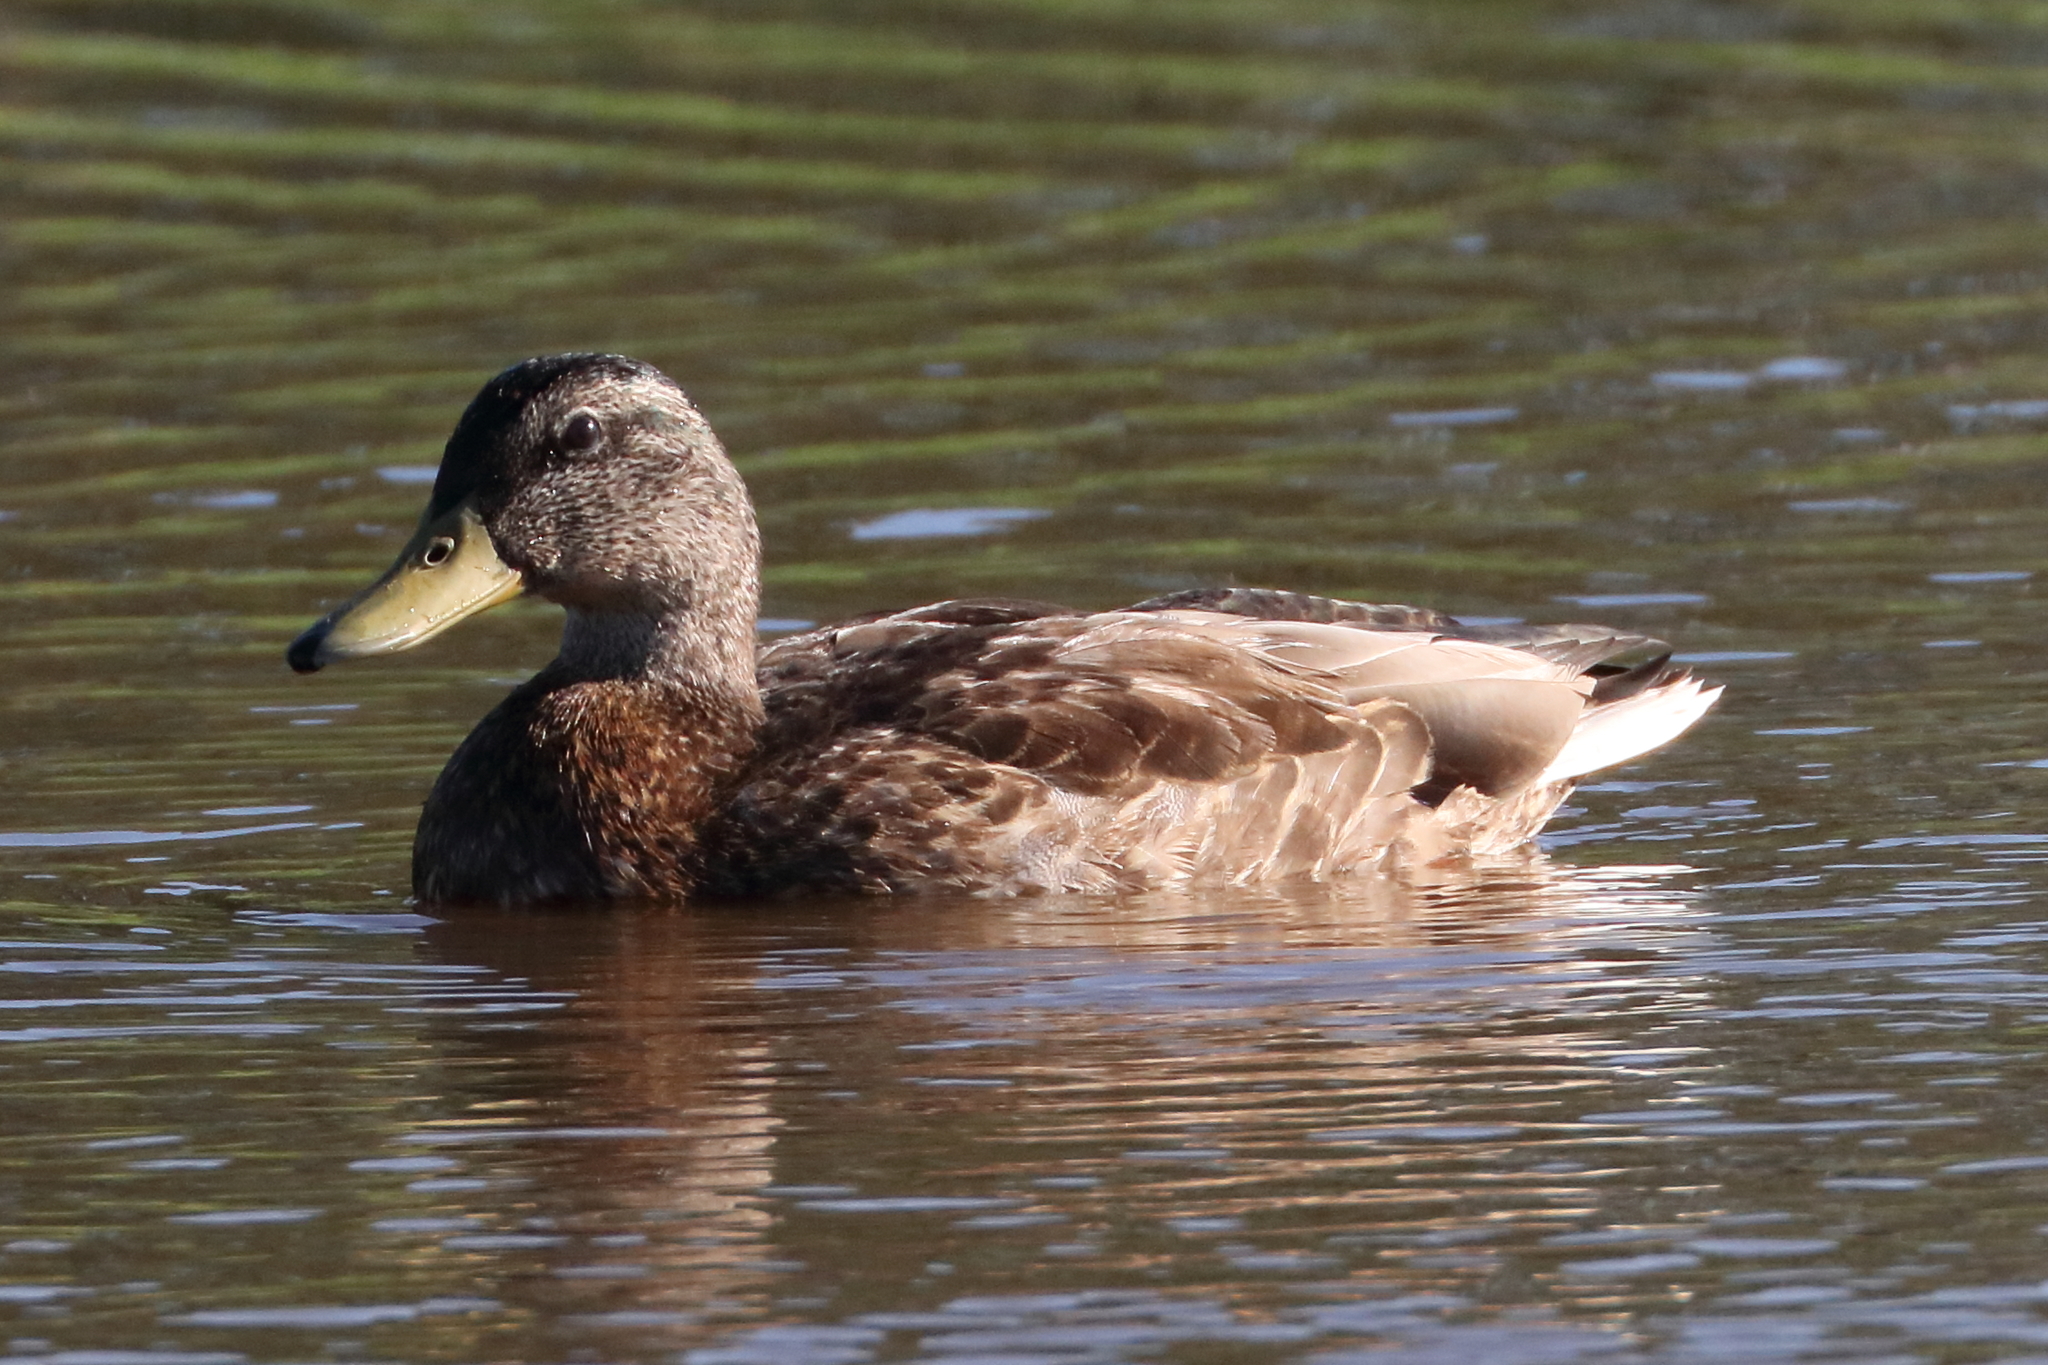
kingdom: Animalia
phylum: Chordata
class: Aves
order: Anseriformes
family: Anatidae
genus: Anas
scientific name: Anas platyrhynchos
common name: Mallard
